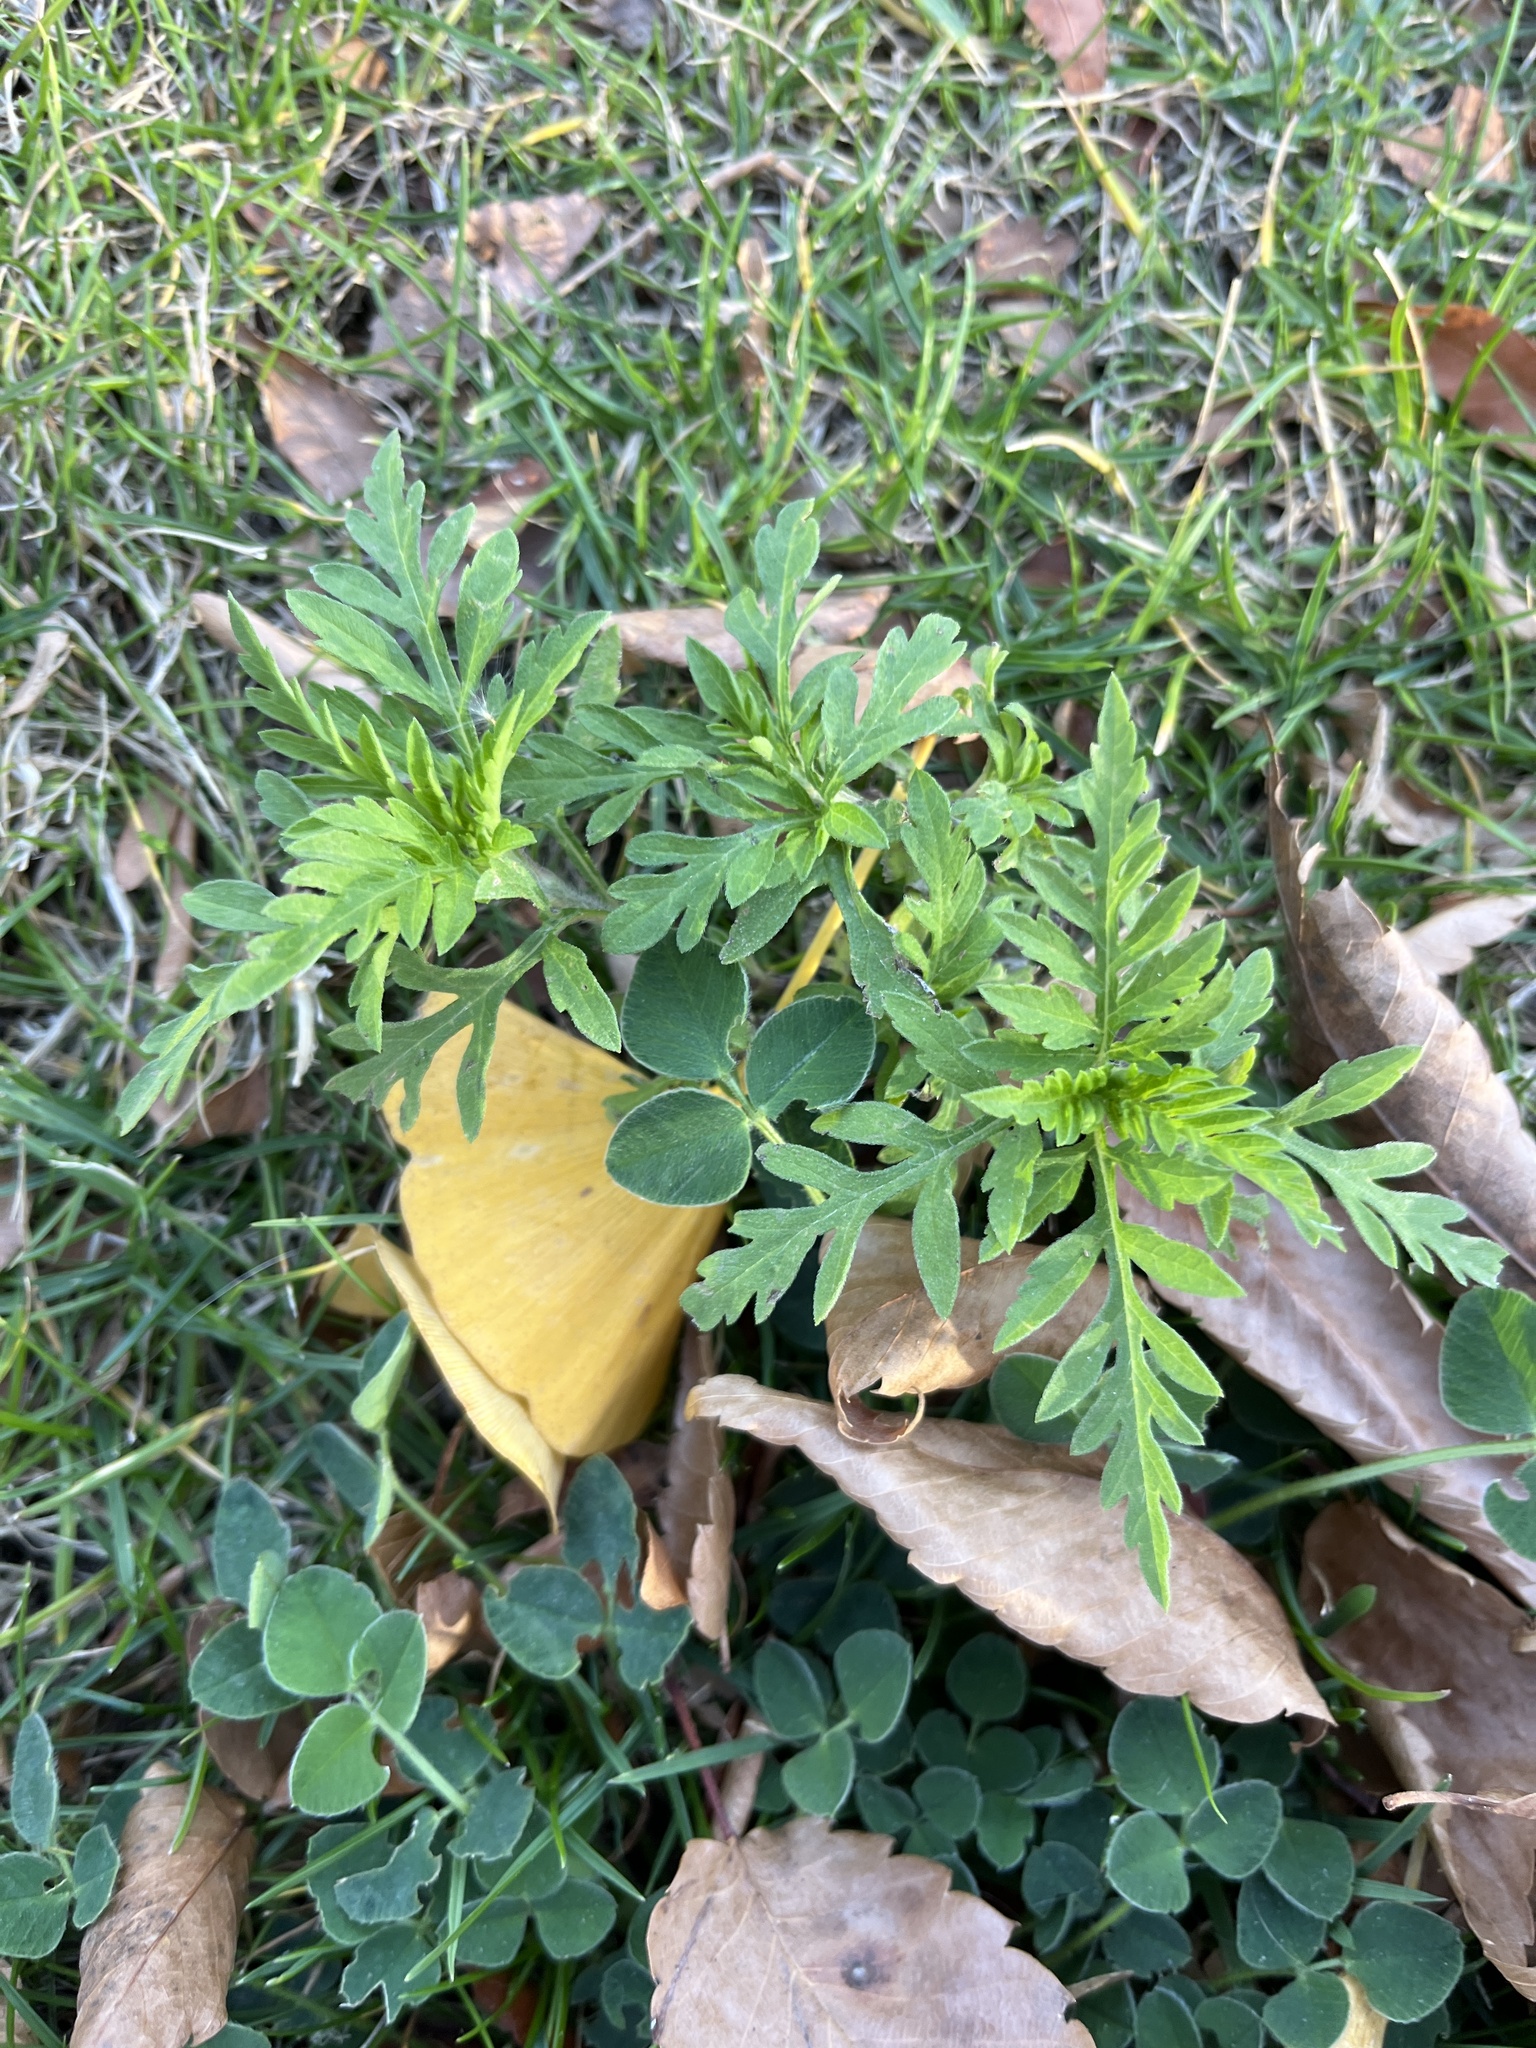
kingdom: Plantae
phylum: Tracheophyta
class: Magnoliopsida
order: Asterales
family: Asteraceae
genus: Ambrosia
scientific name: Ambrosia artemisiifolia
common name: Annual ragweed
